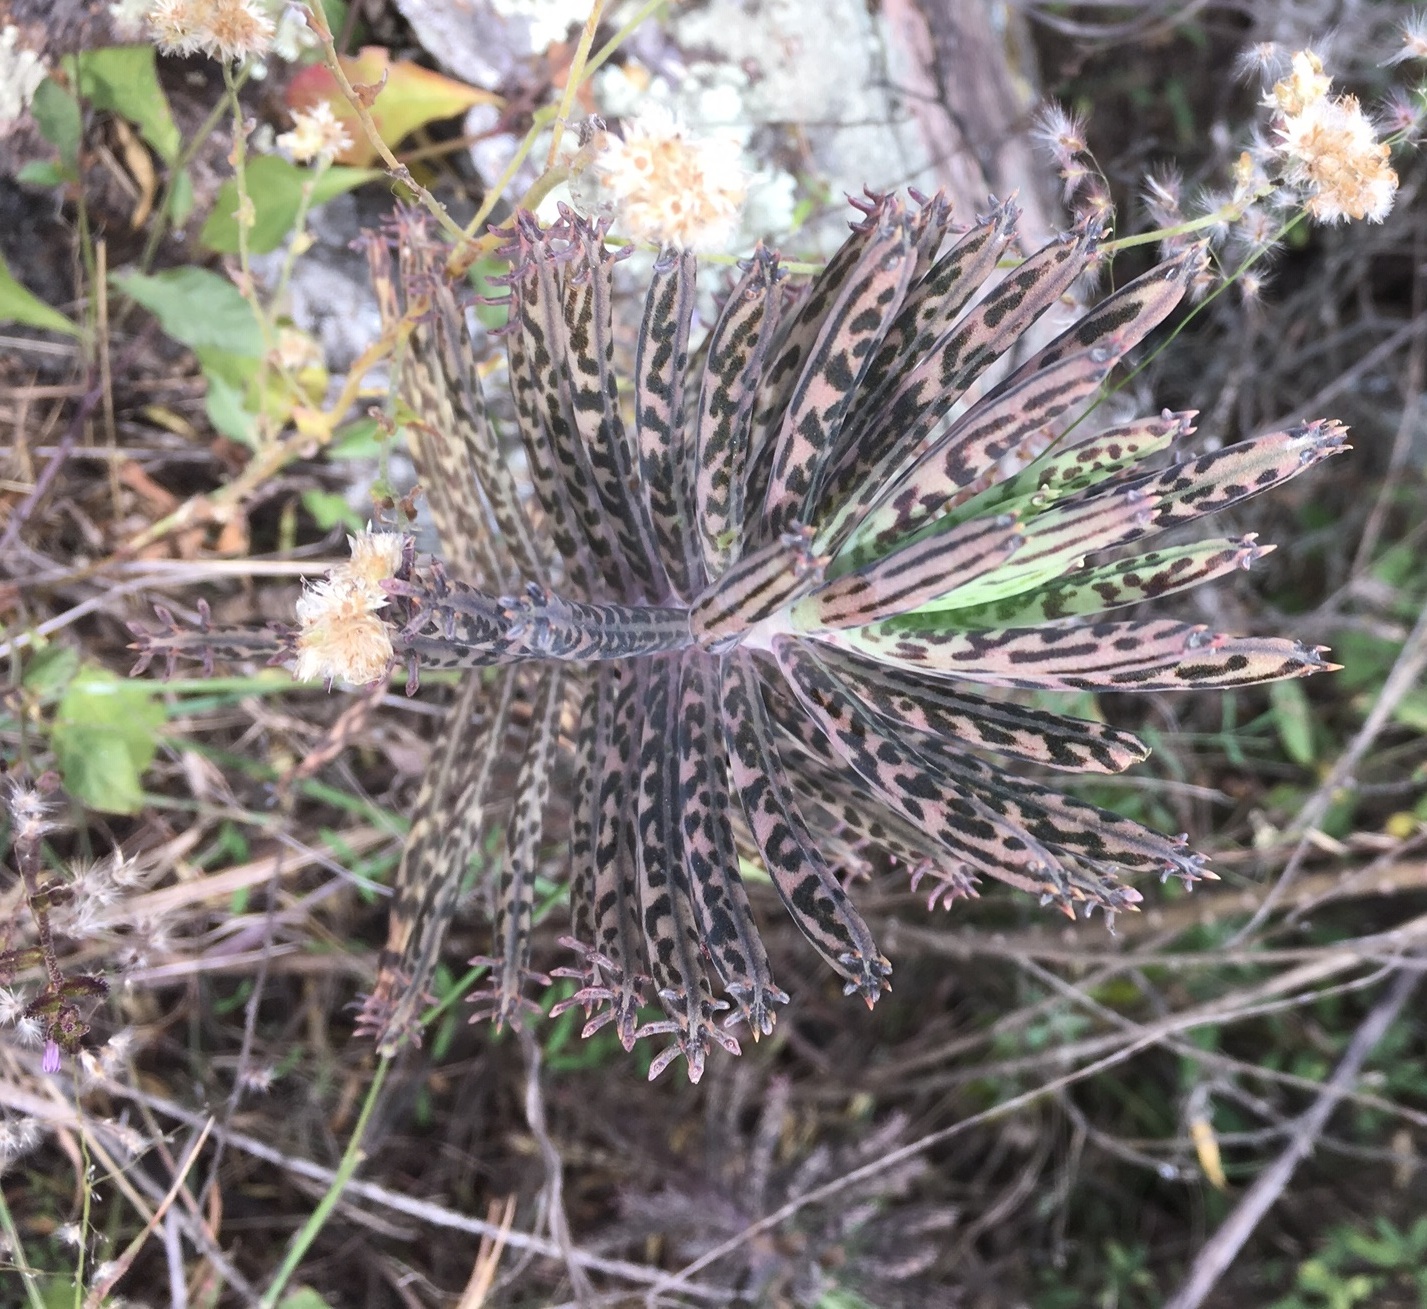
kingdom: Plantae
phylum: Tracheophyta
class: Magnoliopsida
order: Saxifragales
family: Crassulaceae
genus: Kalanchoe
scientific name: Kalanchoe delagoensis
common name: Chandelier plant
